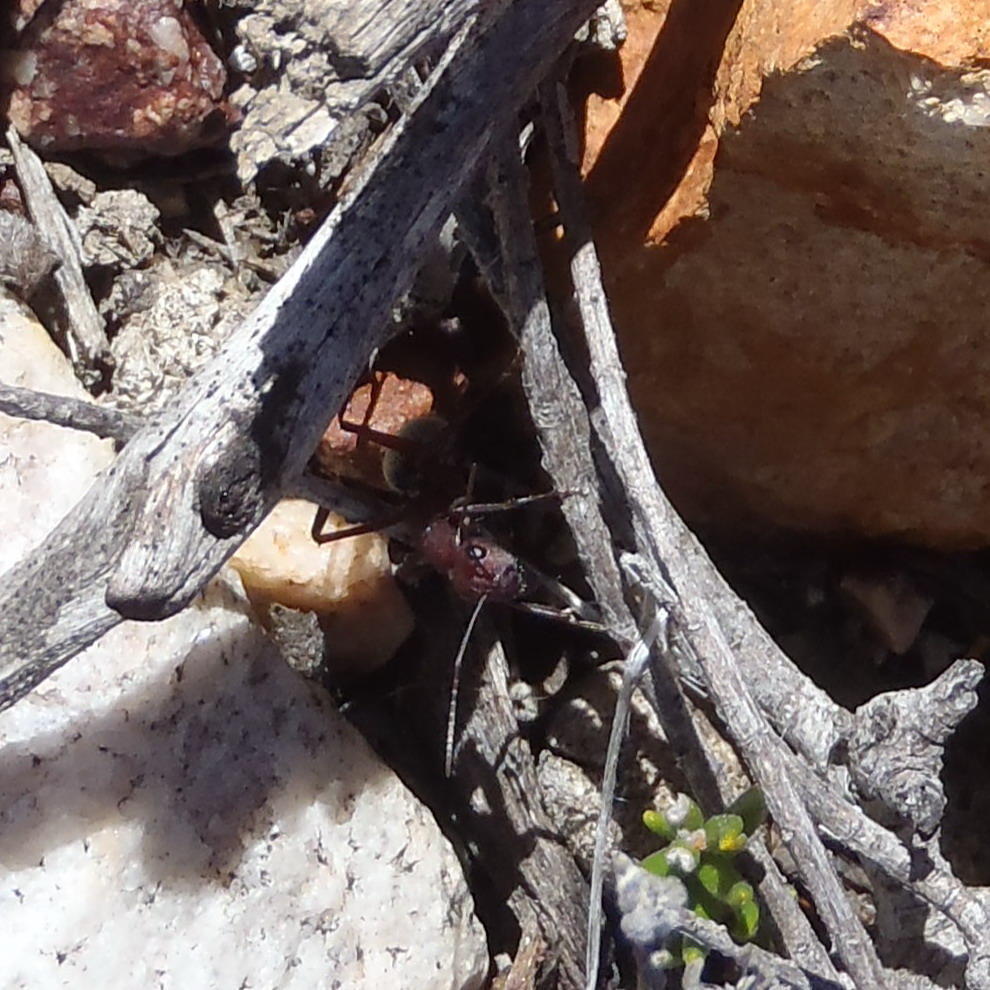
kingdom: Animalia
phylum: Arthropoda
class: Insecta
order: Hymenoptera
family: Formicidae
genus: Camponotus
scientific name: Camponotus storeatus
